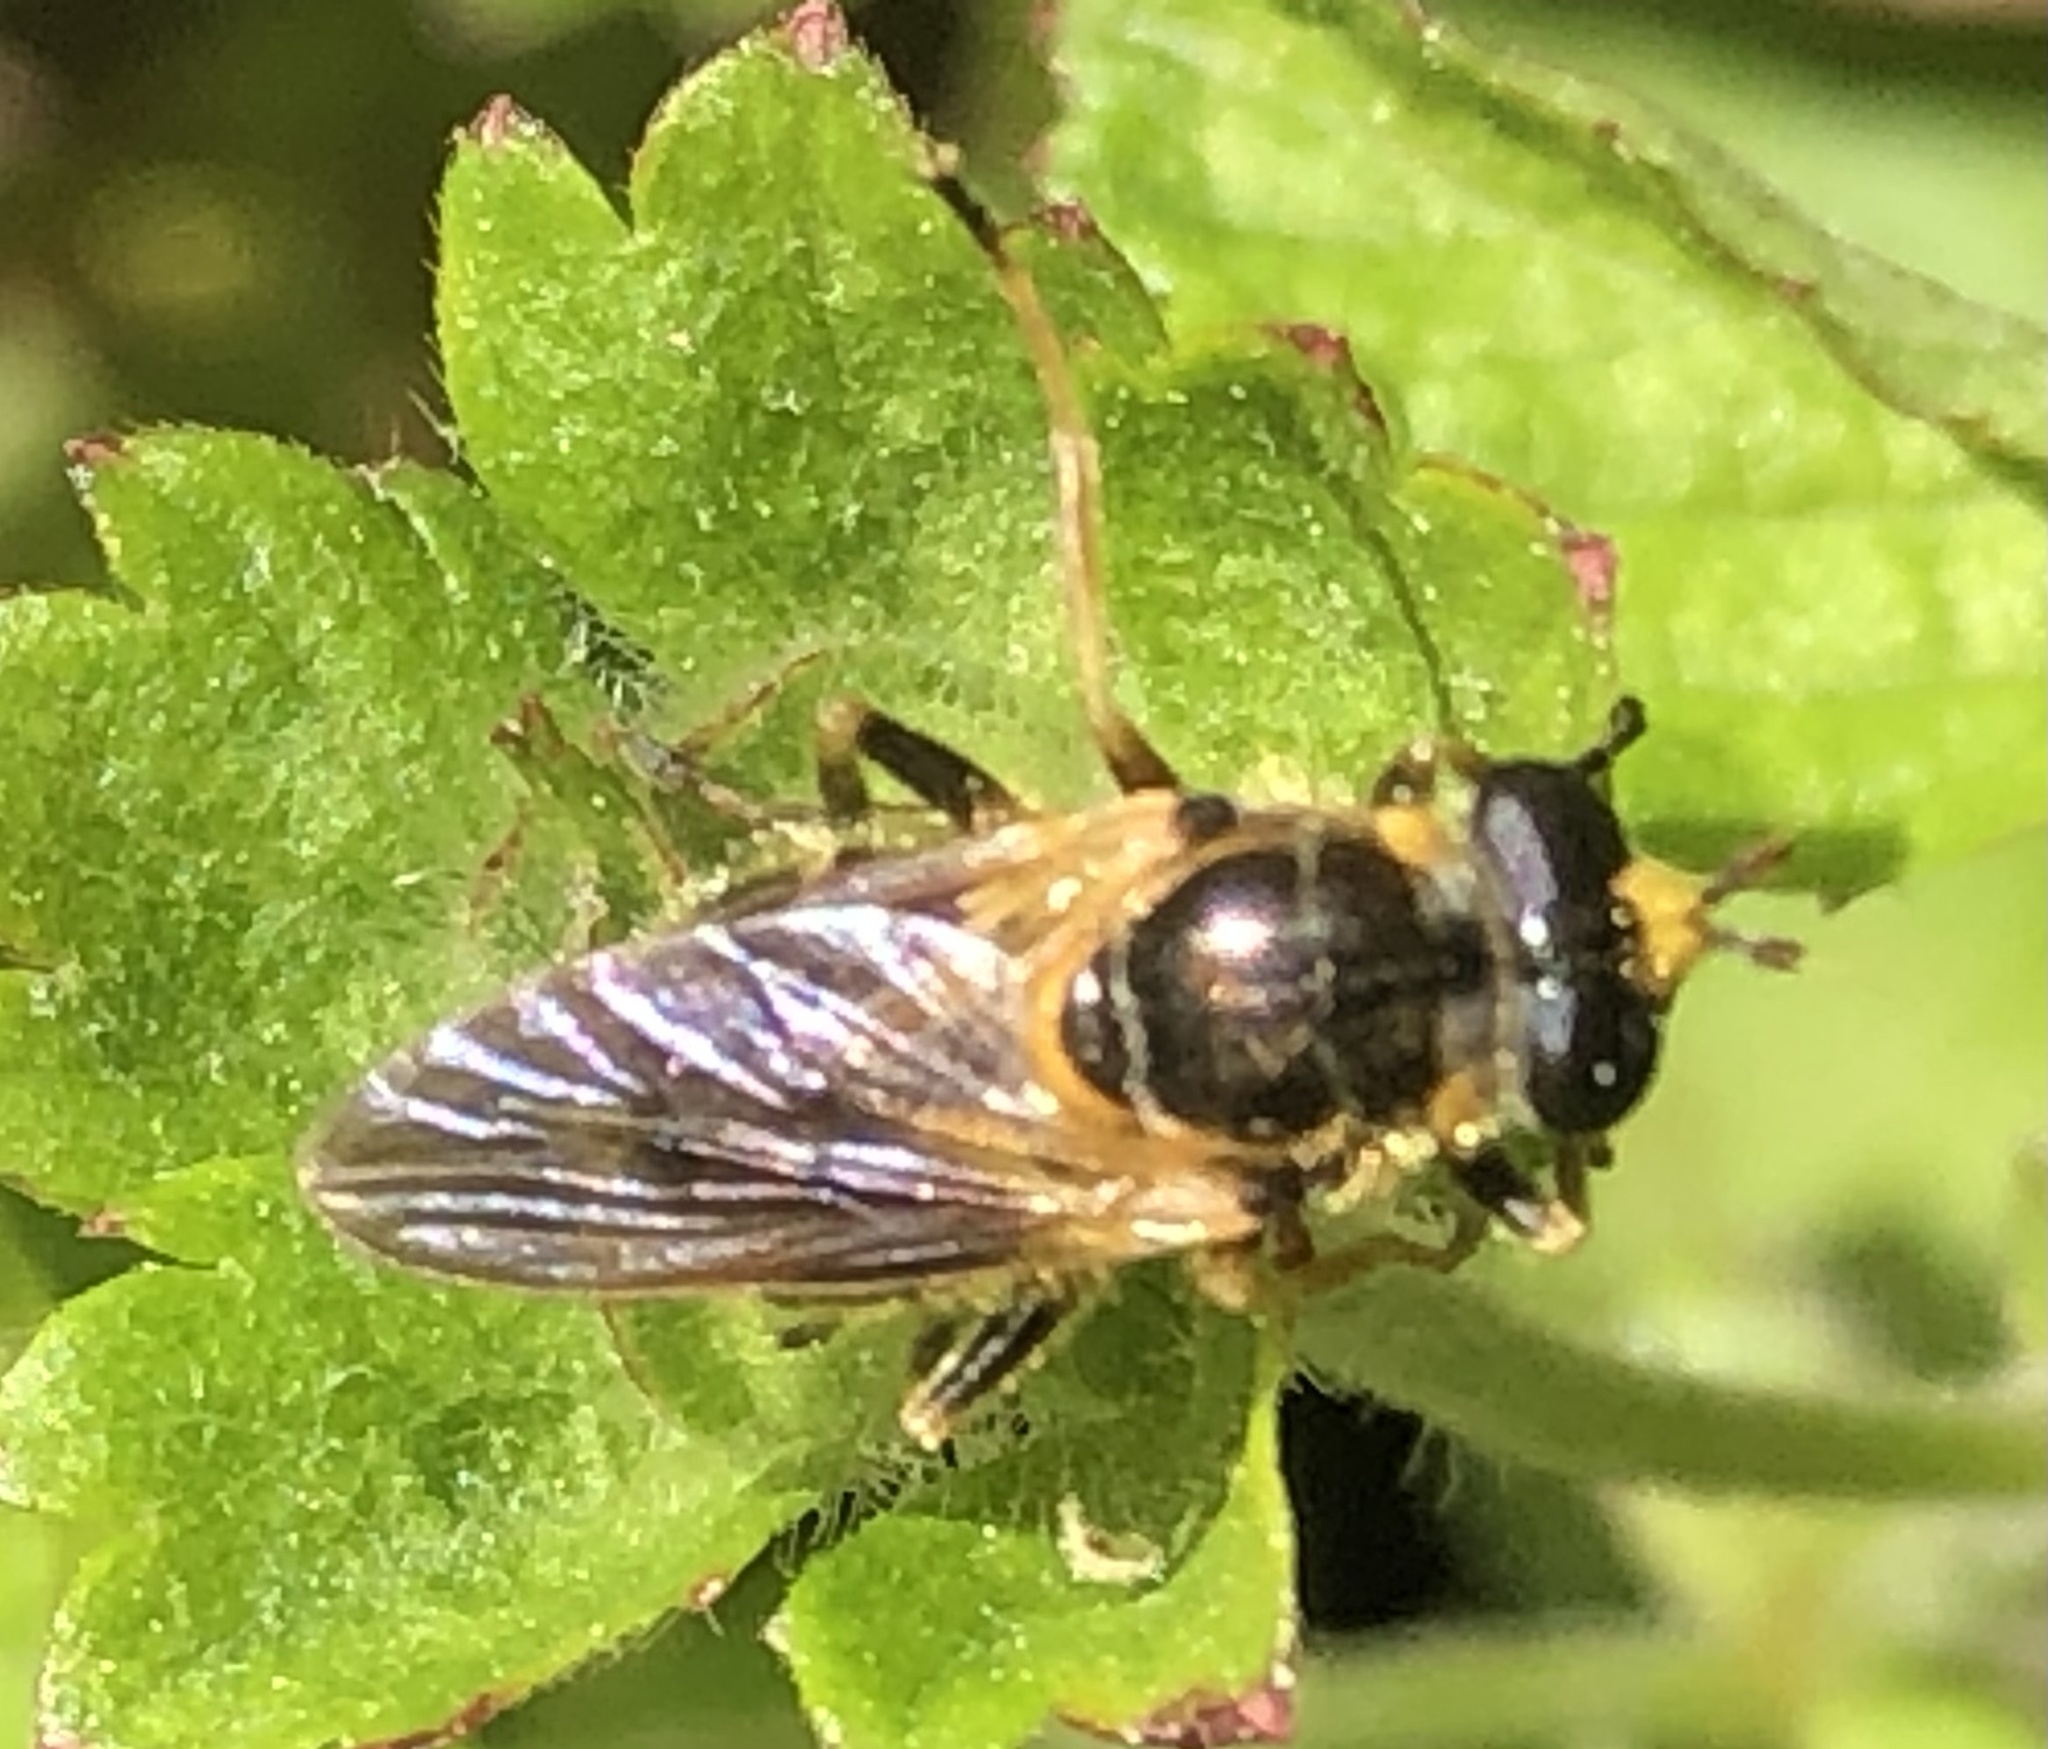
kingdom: Animalia
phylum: Arthropoda
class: Insecta
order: Diptera
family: Syrphidae
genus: Blera
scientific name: Blera pictipes
